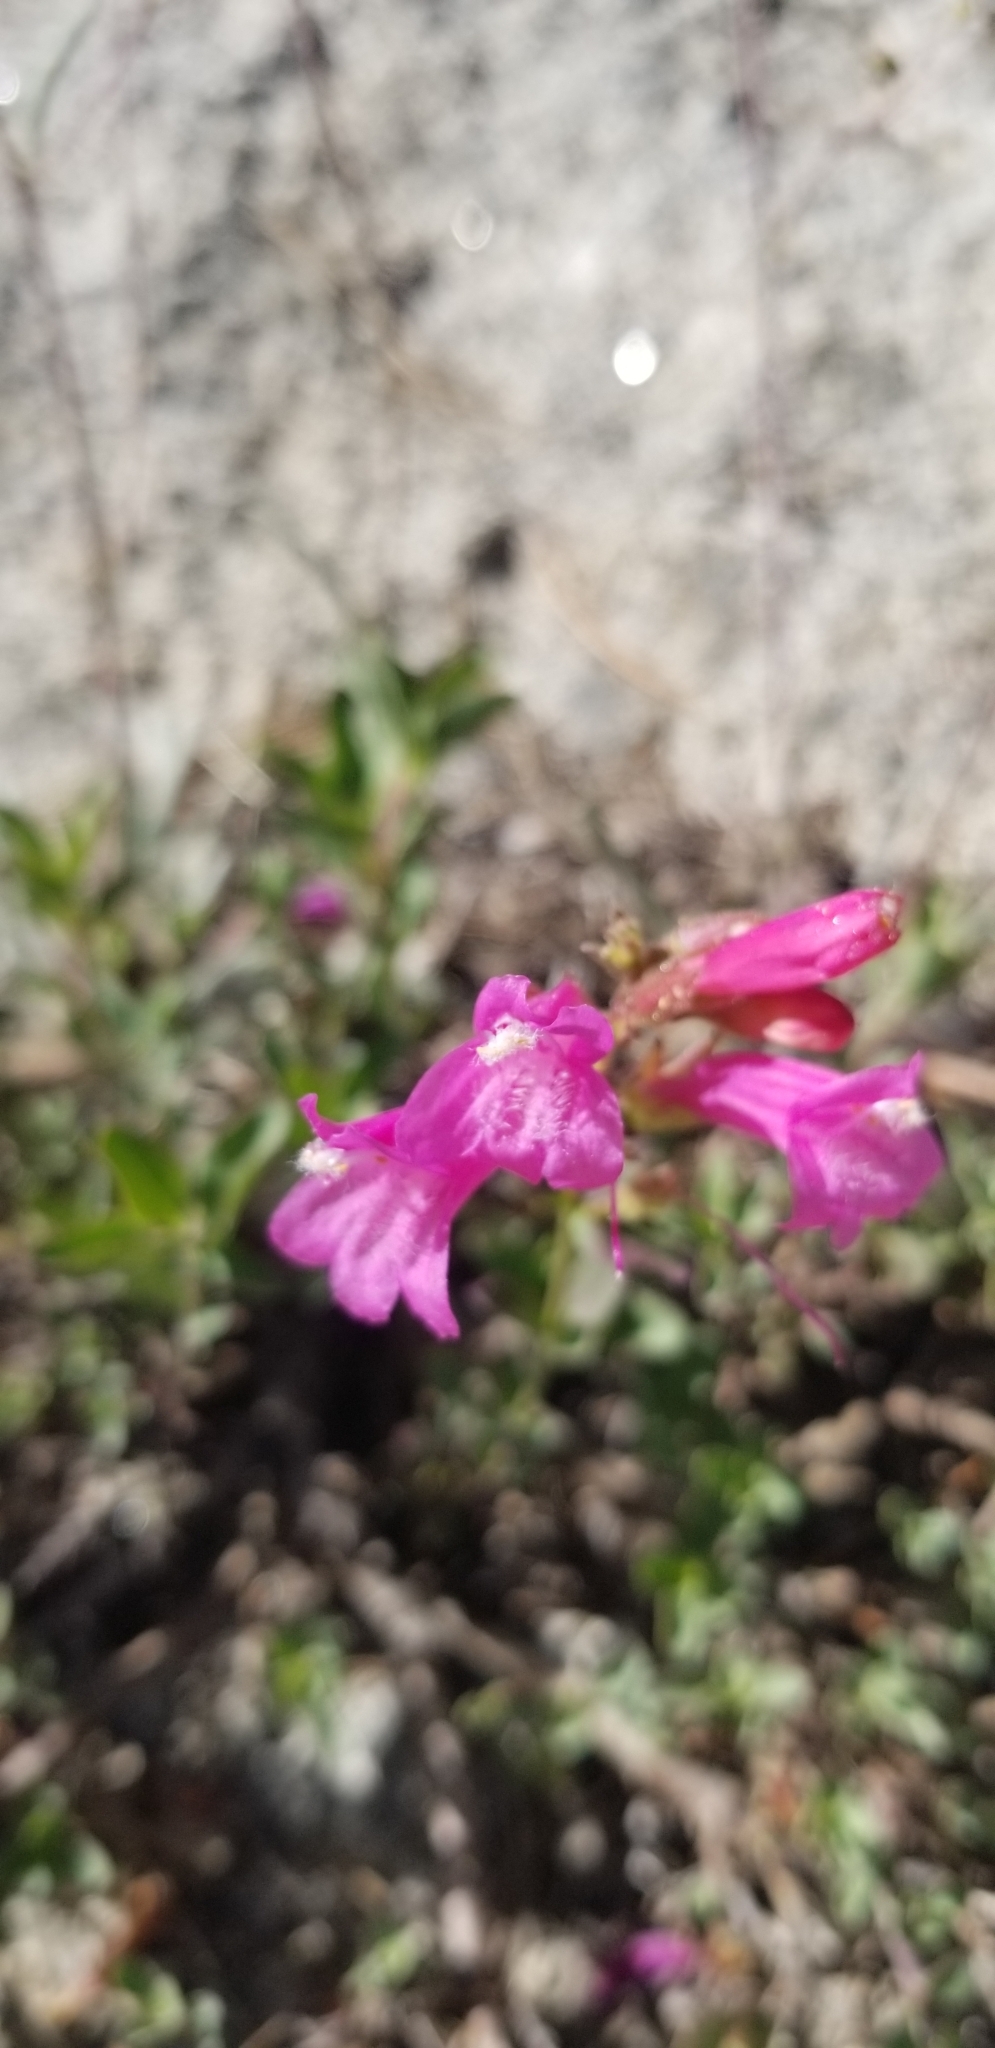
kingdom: Plantae
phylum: Tracheophyta
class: Magnoliopsida
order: Lamiales
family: Plantaginaceae
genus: Penstemon
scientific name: Penstemon newberryi
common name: Mountain-pride
